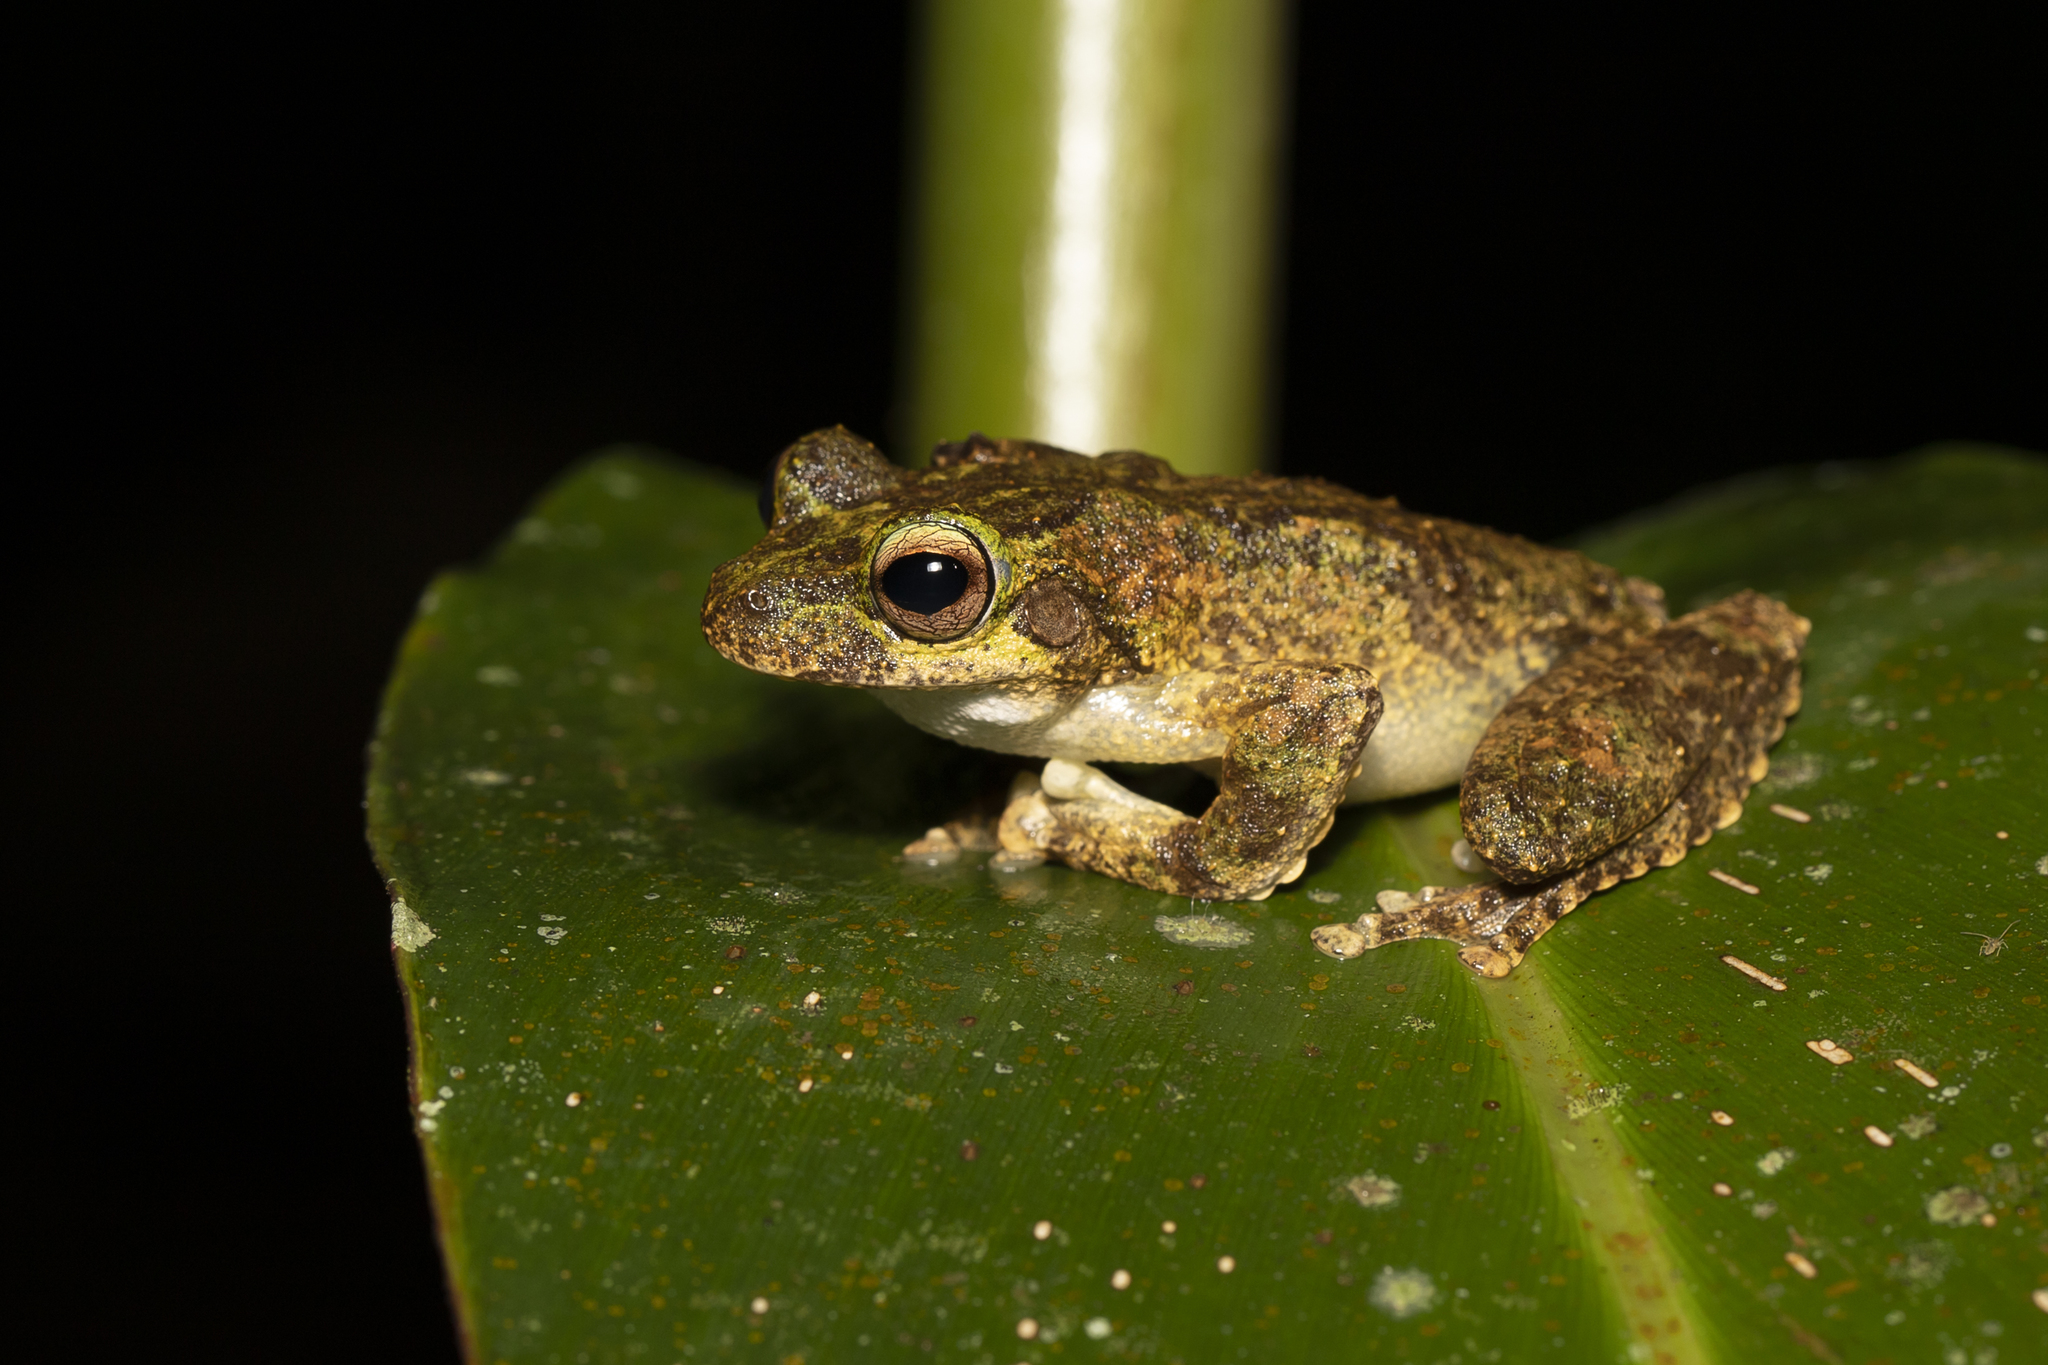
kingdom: Animalia
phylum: Chordata
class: Amphibia
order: Anura
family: Pelodryadidae
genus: Ranoidea
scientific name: Ranoidea serrata
